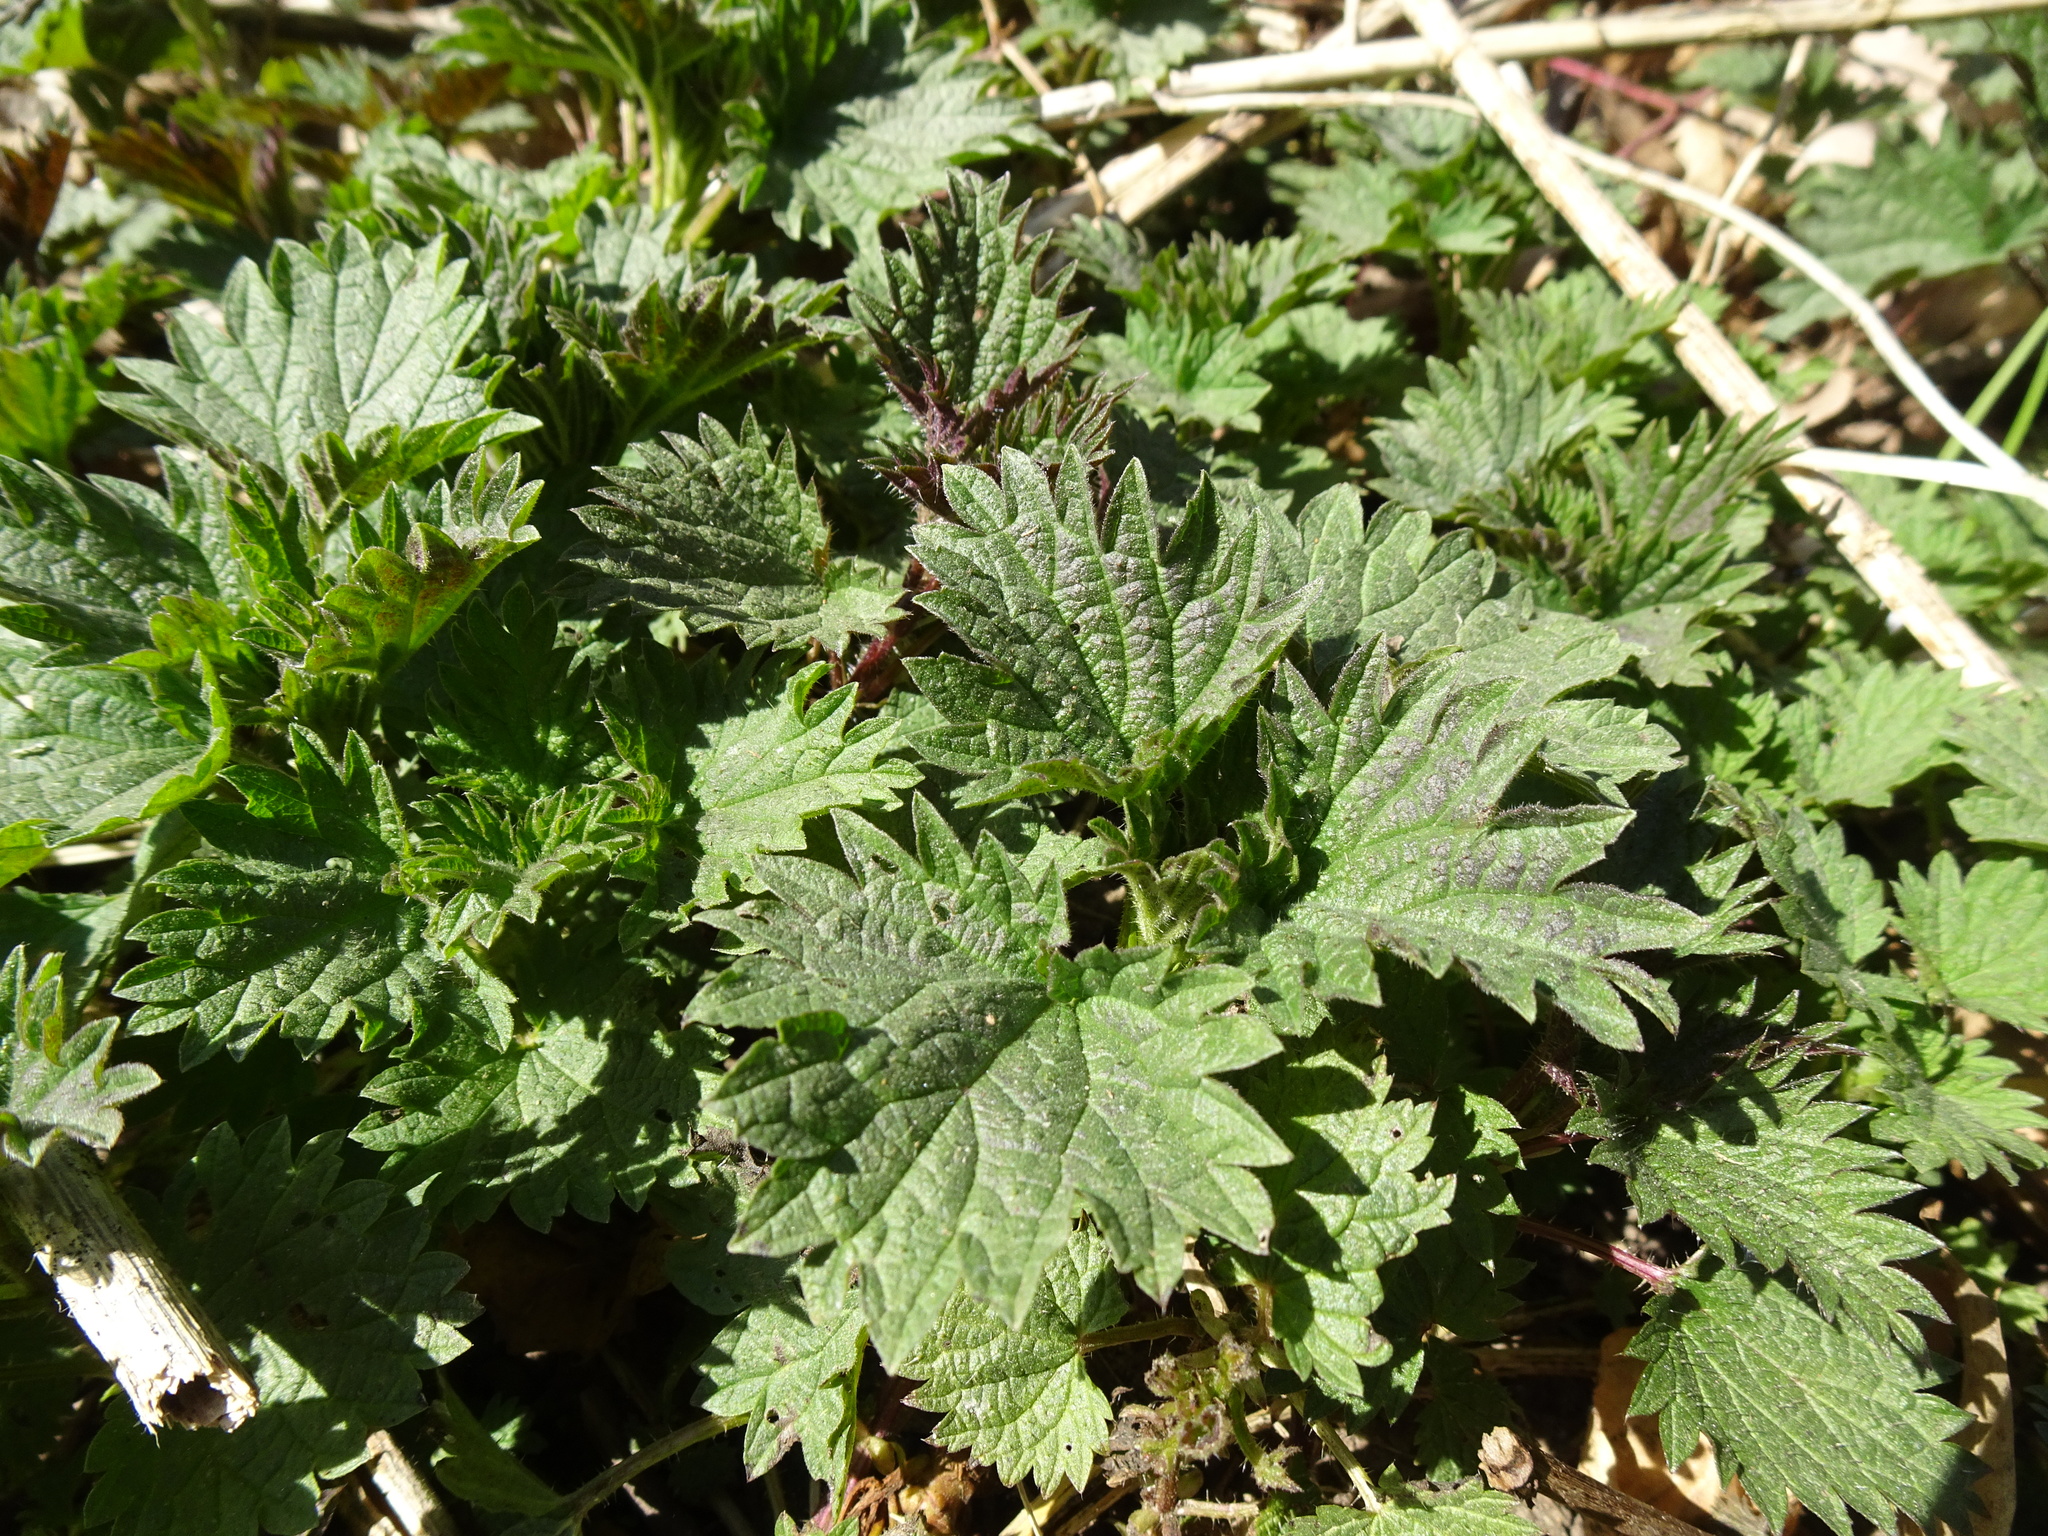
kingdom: Plantae
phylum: Tracheophyta
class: Magnoliopsida
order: Rosales
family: Urticaceae
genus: Urtica
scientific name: Urtica dioica
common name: Common nettle
